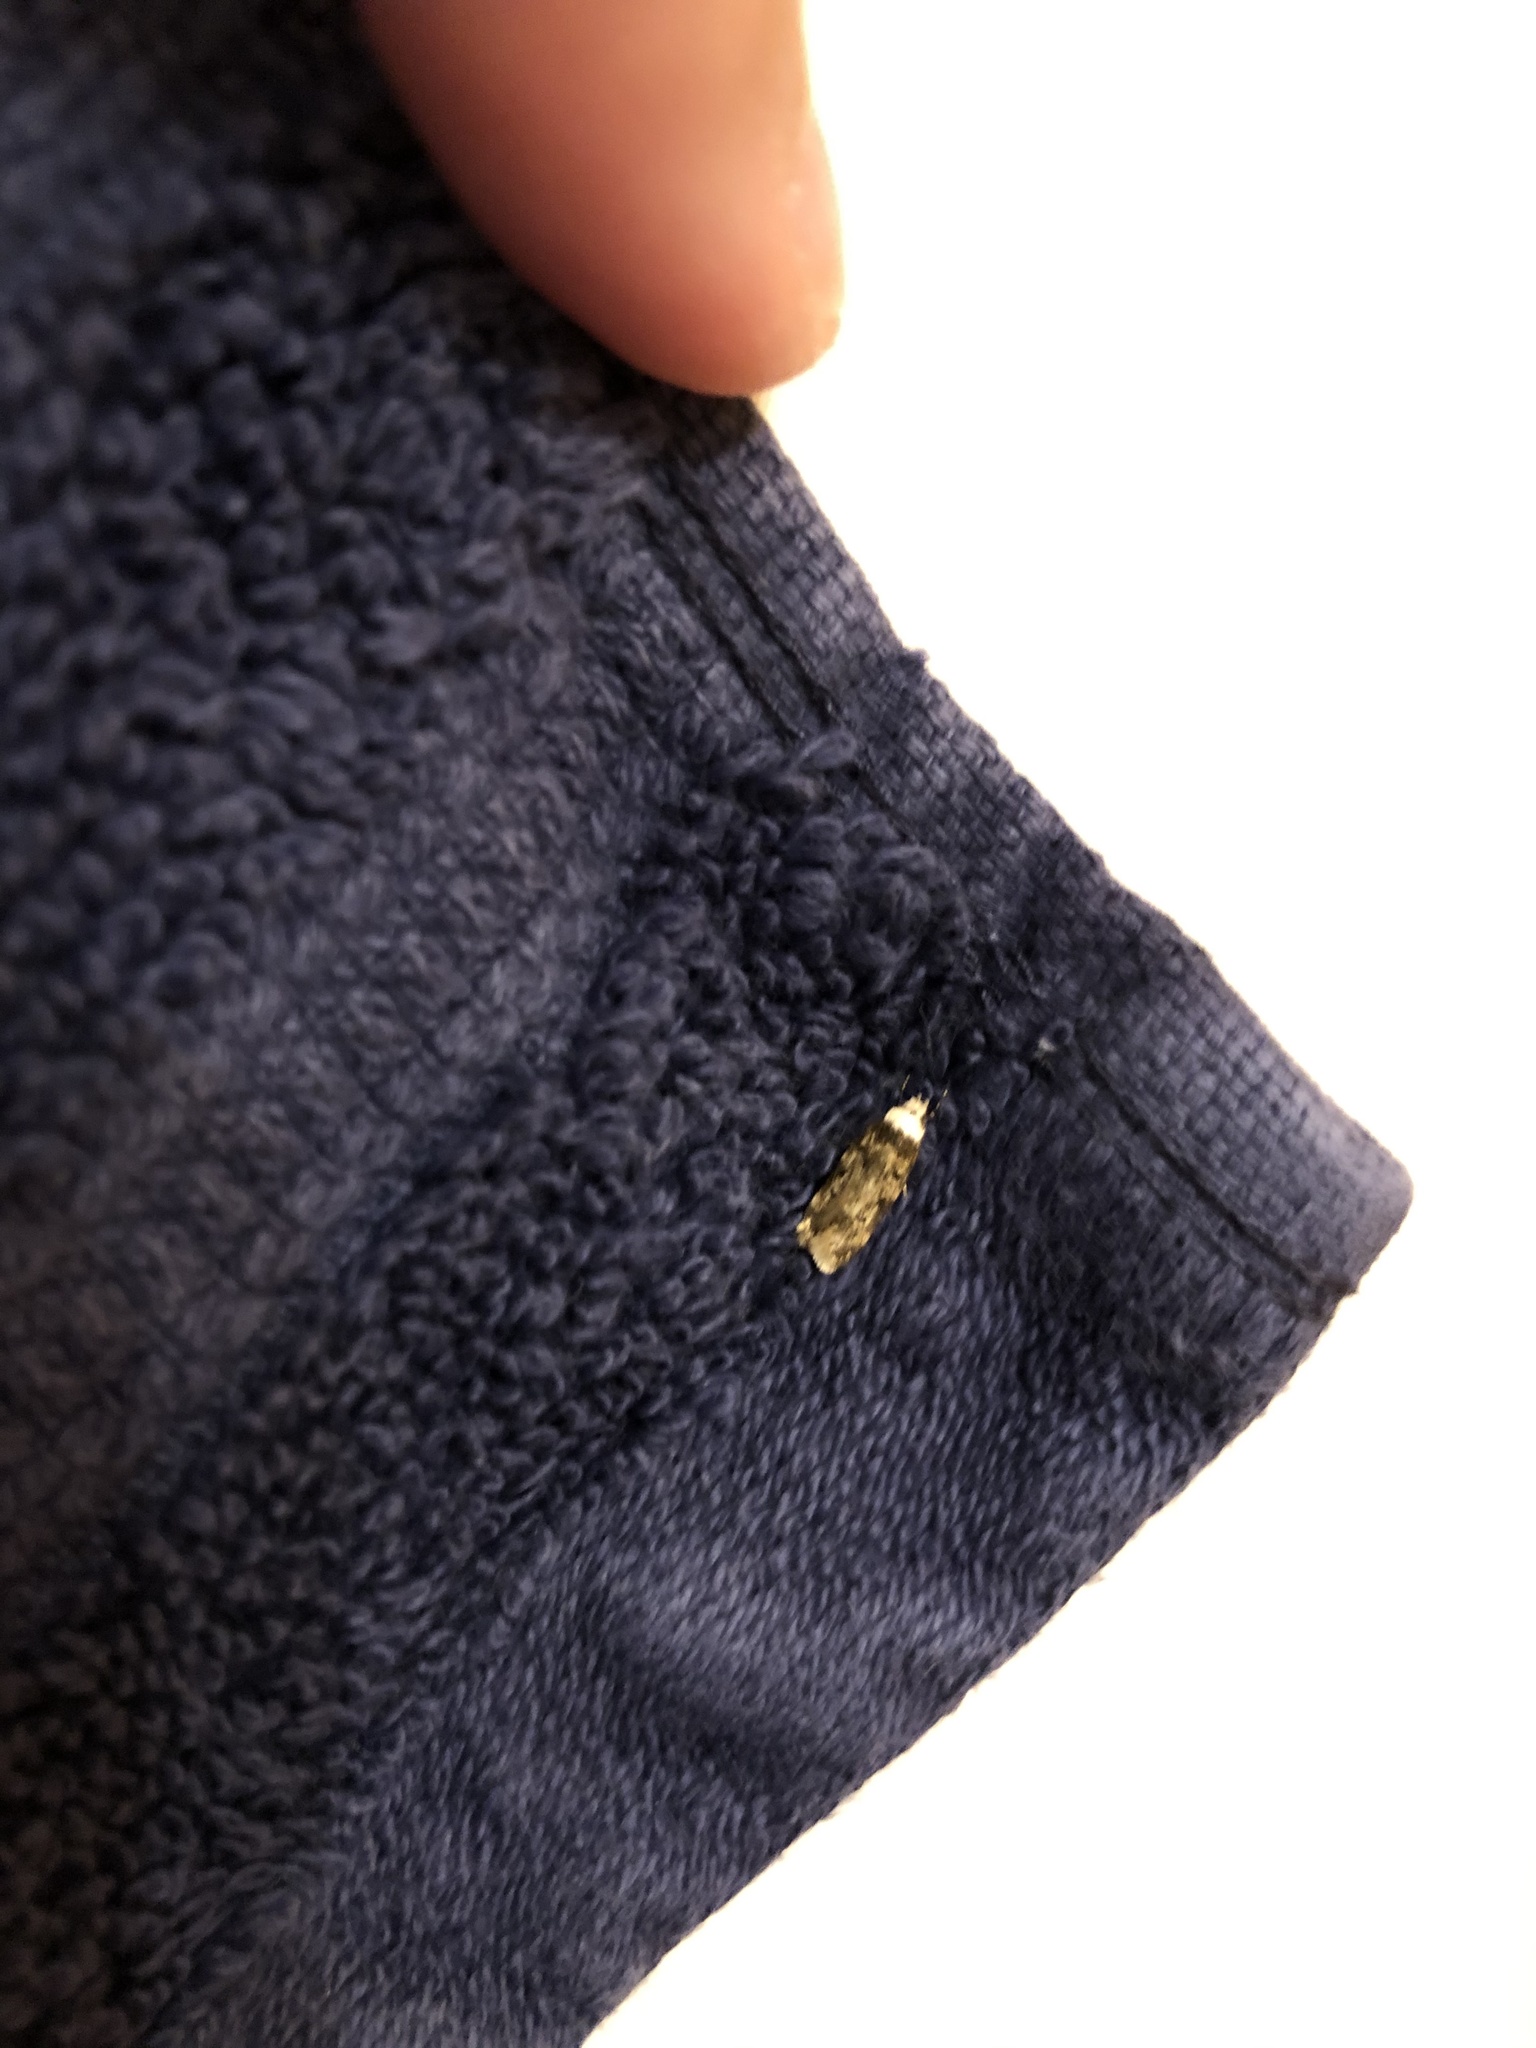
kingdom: Animalia
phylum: Arthropoda
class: Insecta
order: Lepidoptera
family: Oecophoridae
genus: Endrosis
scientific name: Endrosis sarcitrella
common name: White-shouldered house moth
